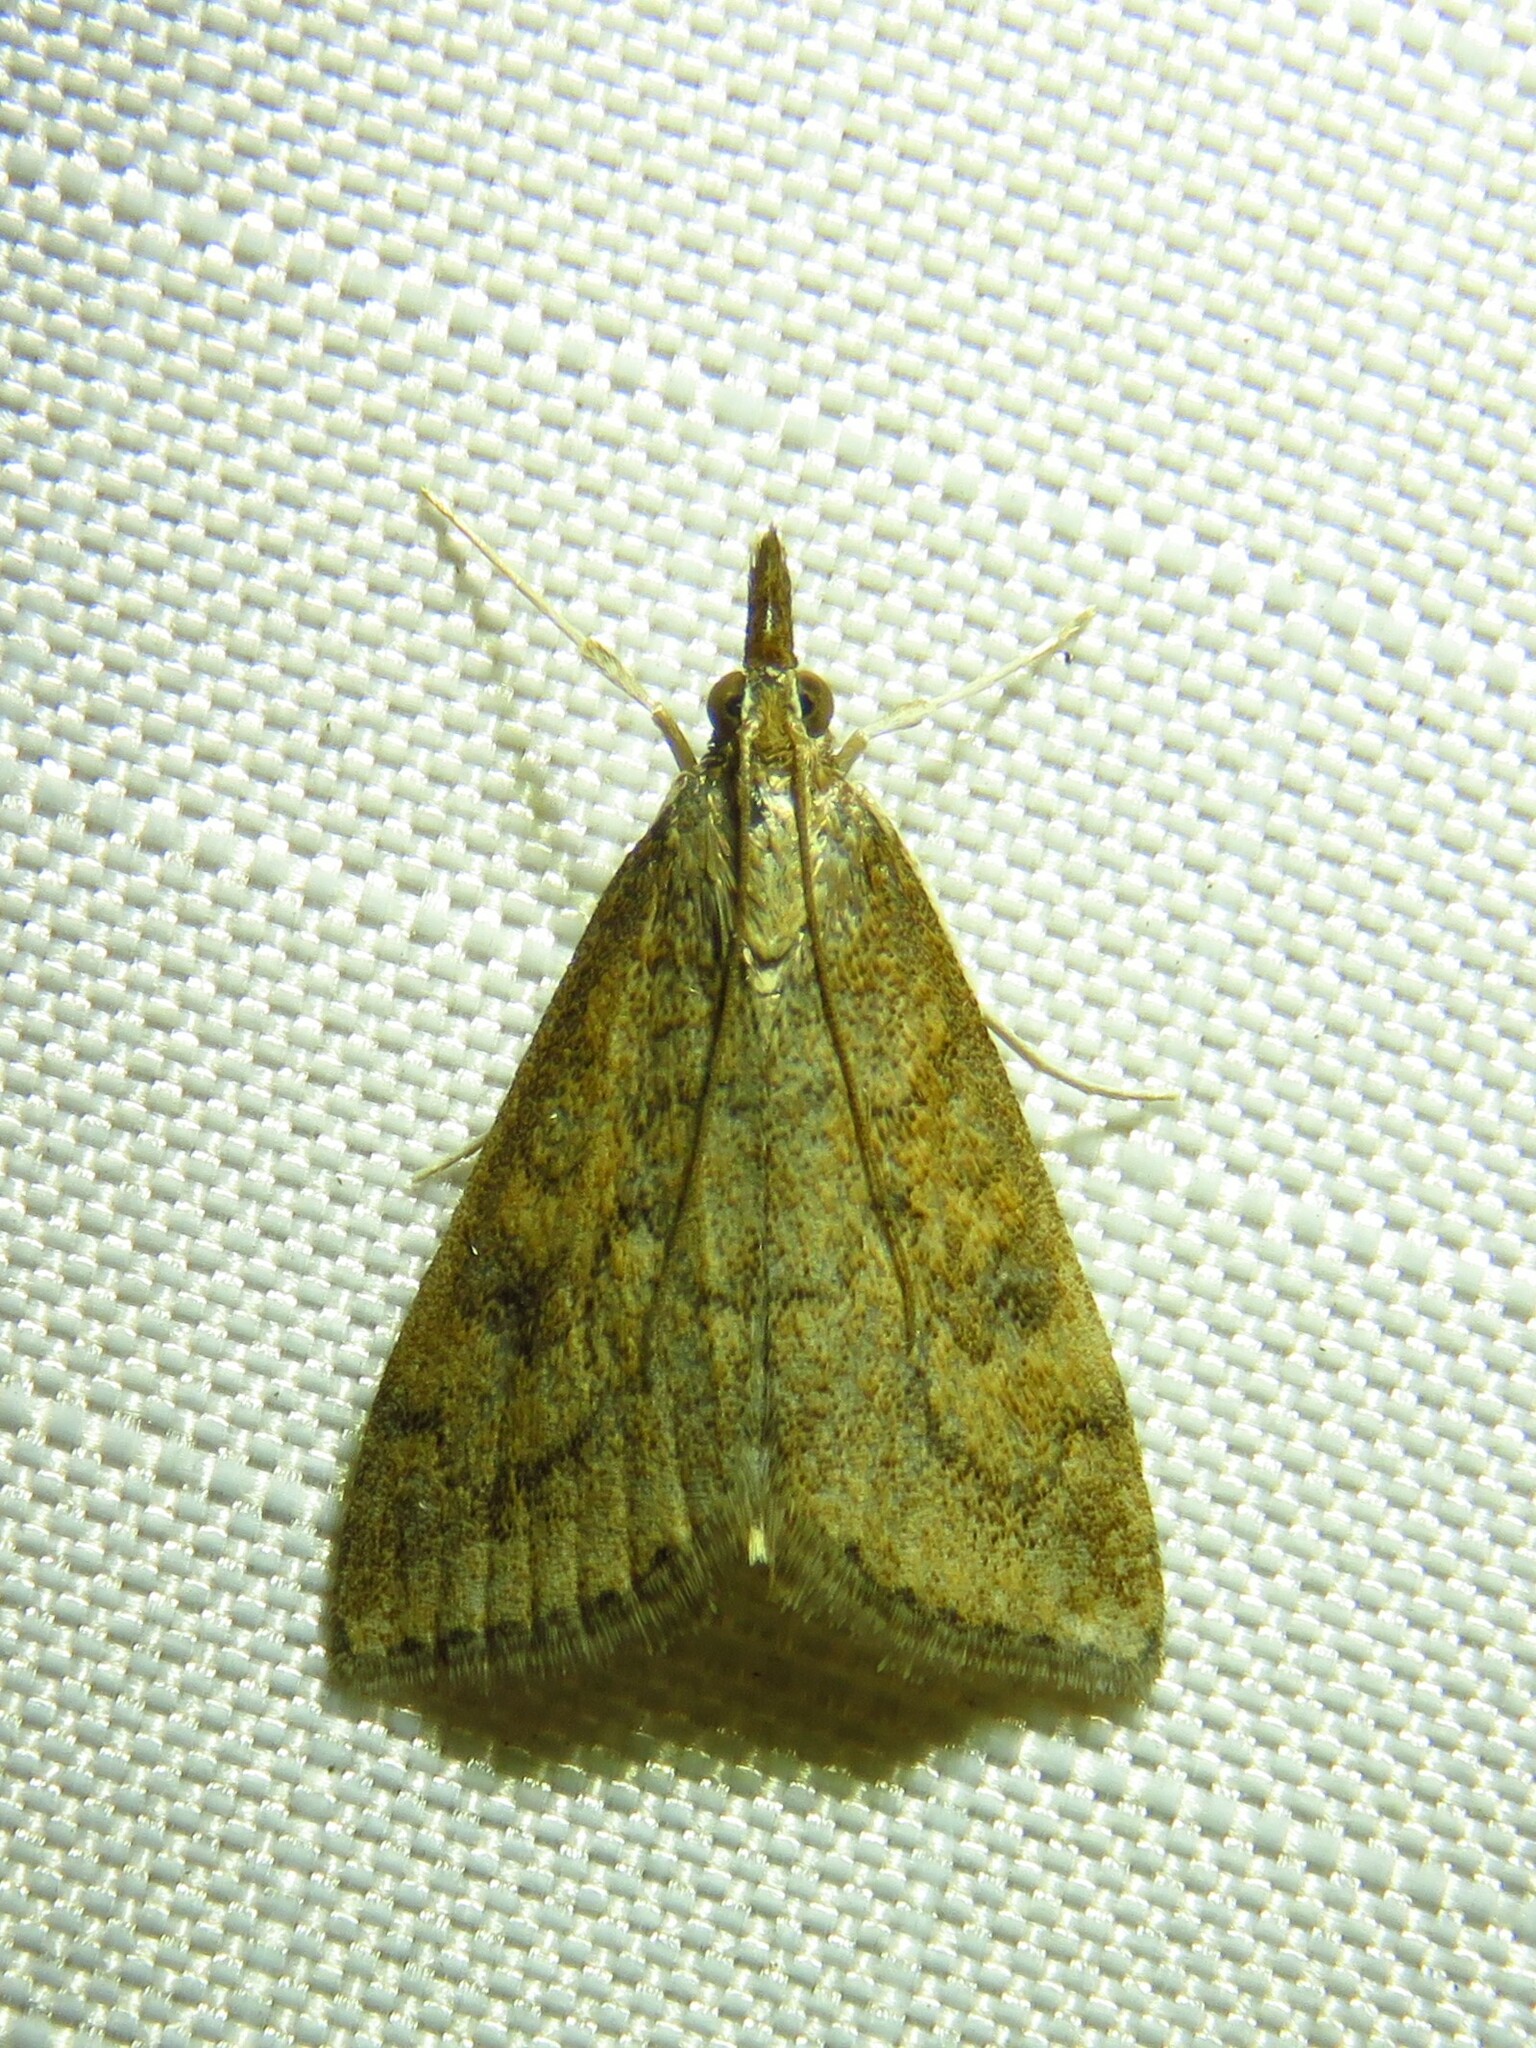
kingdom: Animalia
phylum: Arthropoda
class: Insecta
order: Lepidoptera
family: Crambidae
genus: Udea
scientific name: Udea rubigalis
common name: Celery leaftier moth
